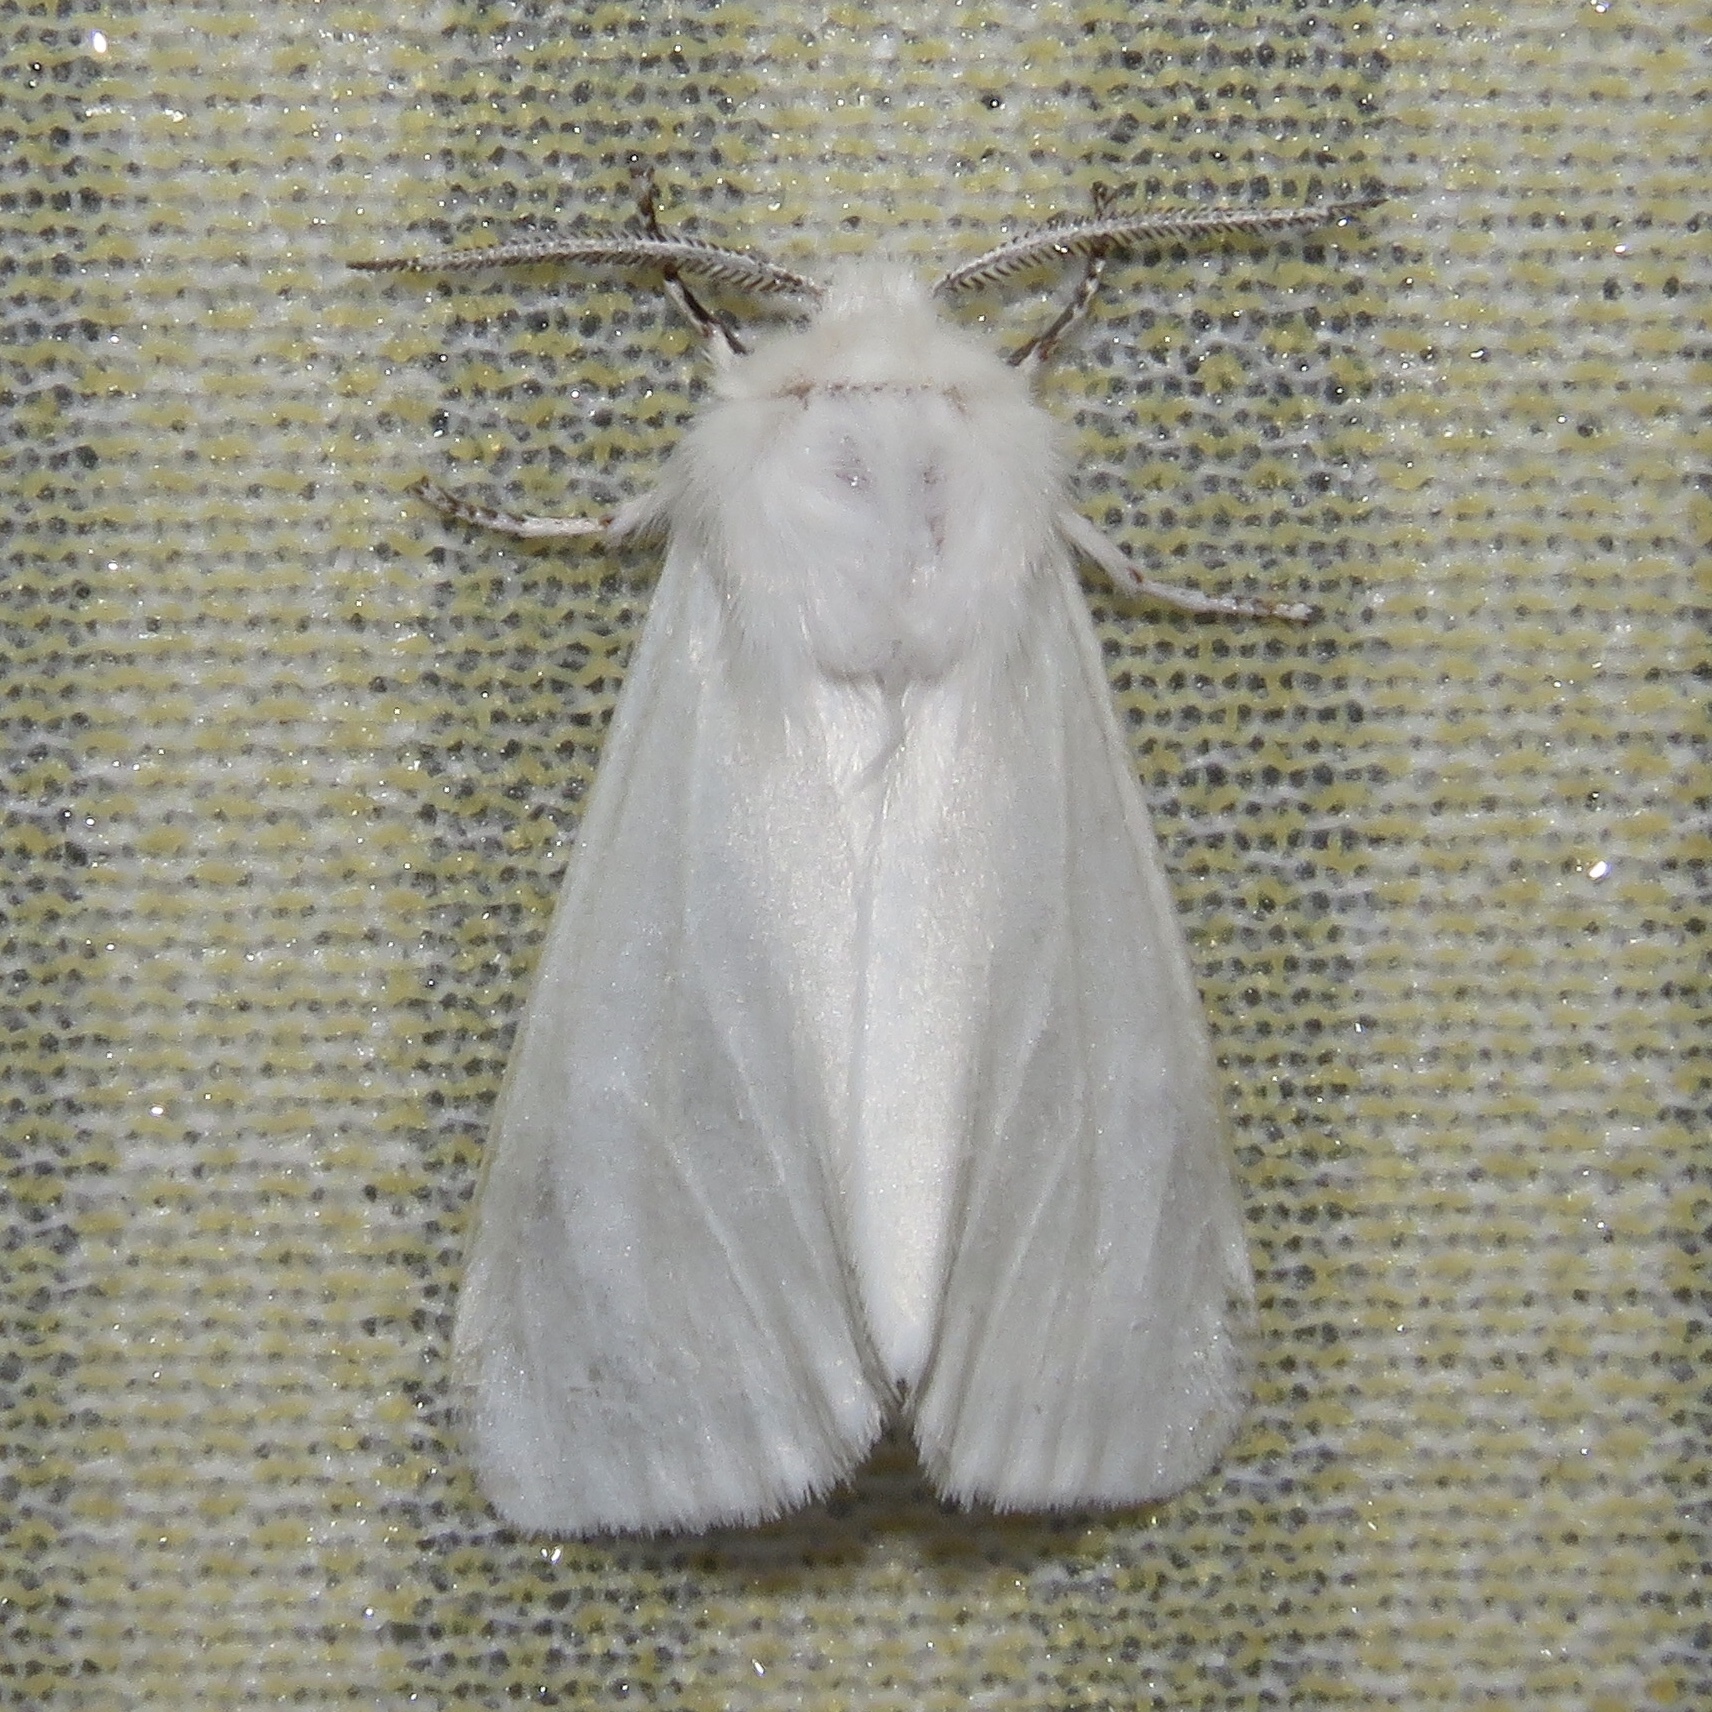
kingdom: Animalia
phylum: Arthropoda
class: Insecta
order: Lepidoptera
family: Erebidae
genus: Hyphantria
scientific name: Hyphantria cunea
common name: American white moth
